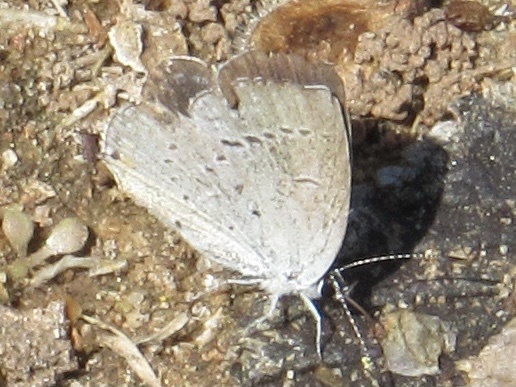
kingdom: Animalia
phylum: Arthropoda
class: Insecta
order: Lepidoptera
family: Lycaenidae
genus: Elkalyce
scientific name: Elkalyce comyntas
